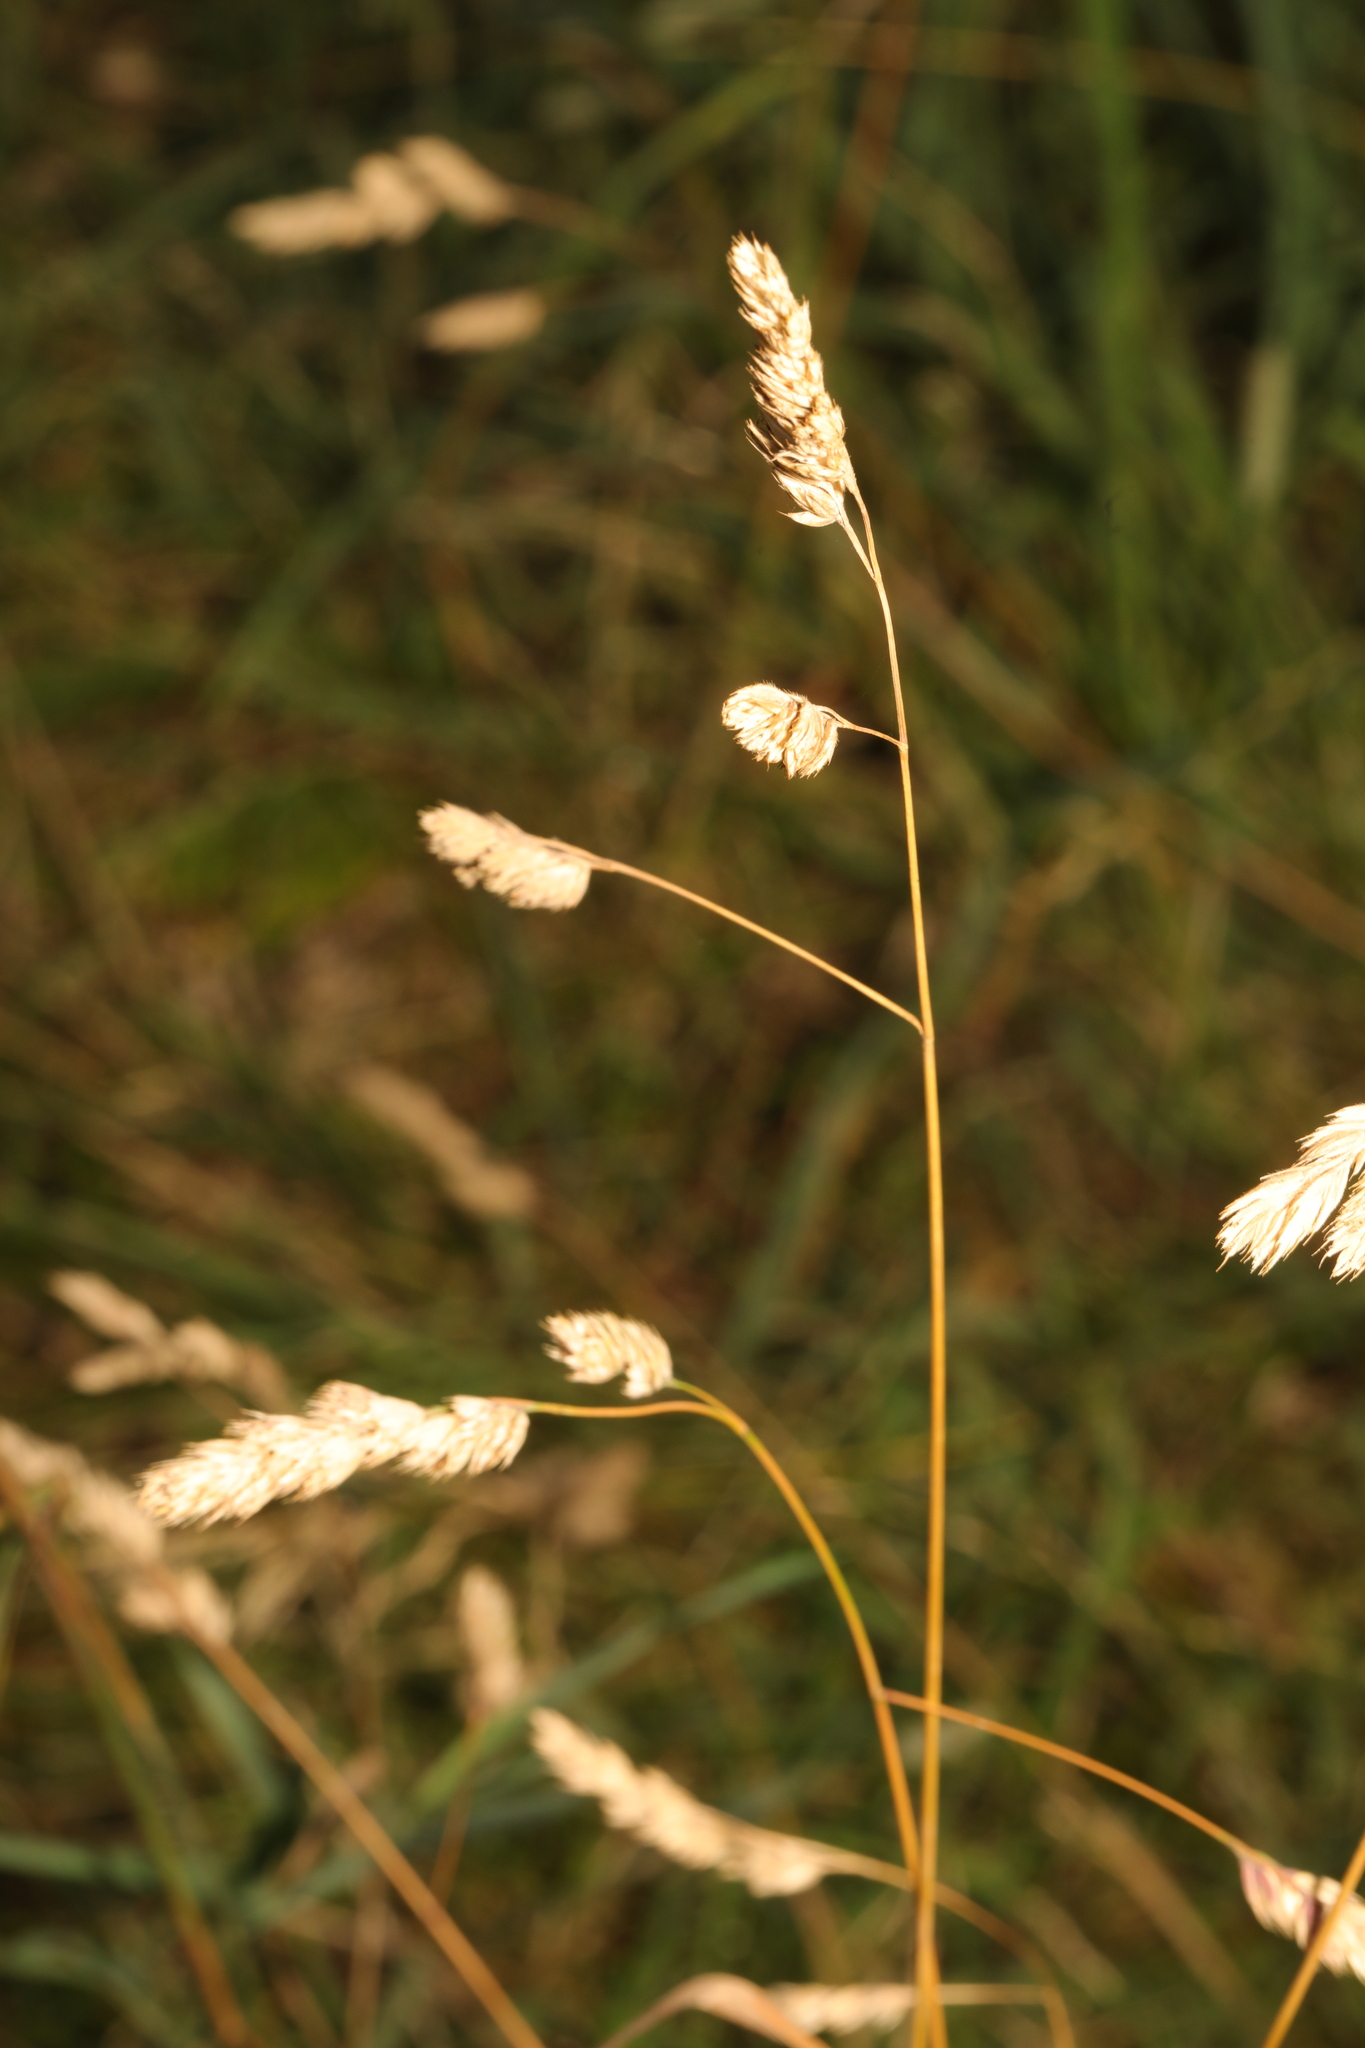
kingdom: Plantae
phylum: Tracheophyta
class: Liliopsida
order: Poales
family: Poaceae
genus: Dactylis
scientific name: Dactylis glomerata
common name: Orchardgrass
